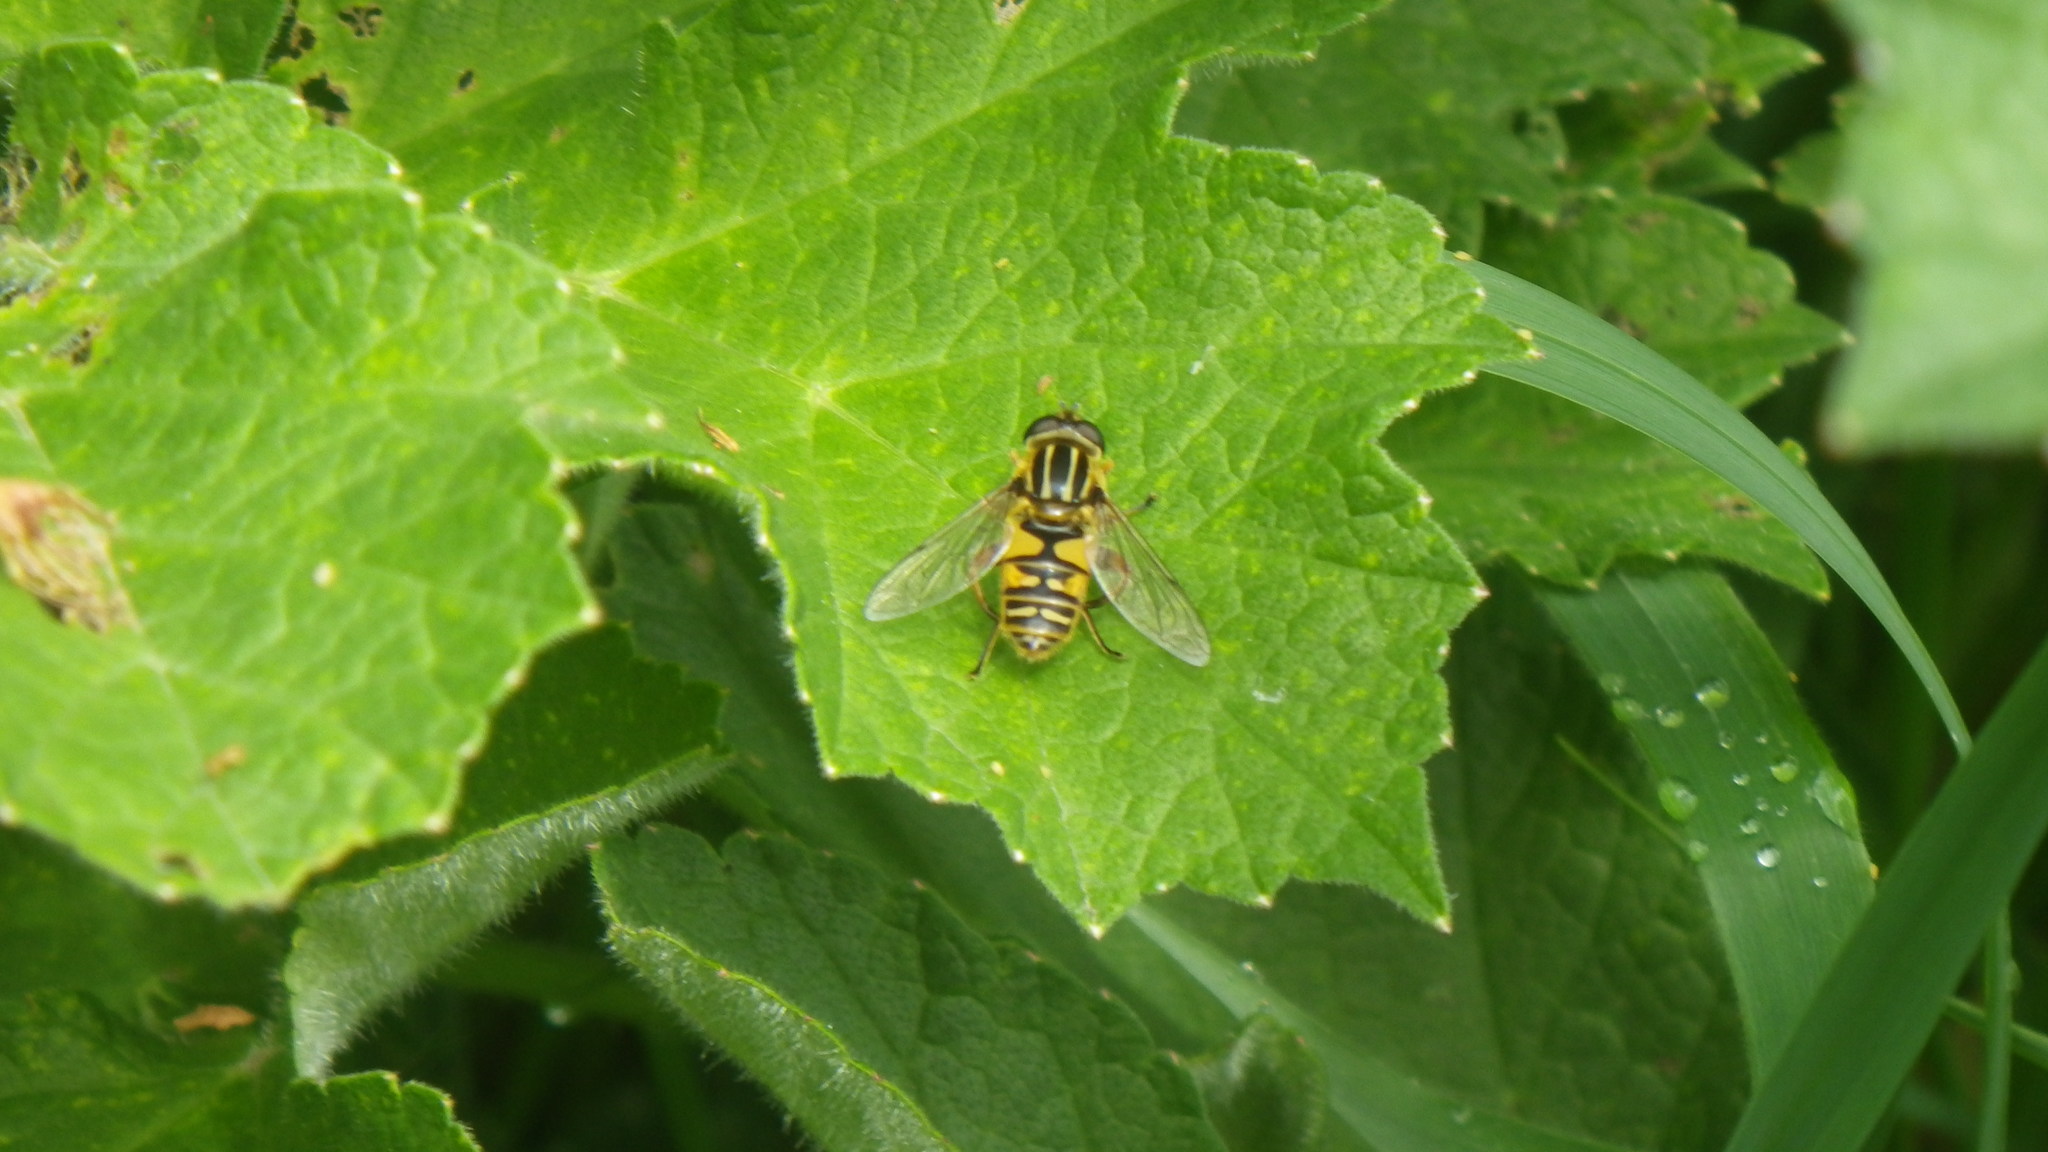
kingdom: Animalia
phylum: Arthropoda
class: Insecta
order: Diptera
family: Syrphidae
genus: Helophilus
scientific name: Helophilus pendulus
